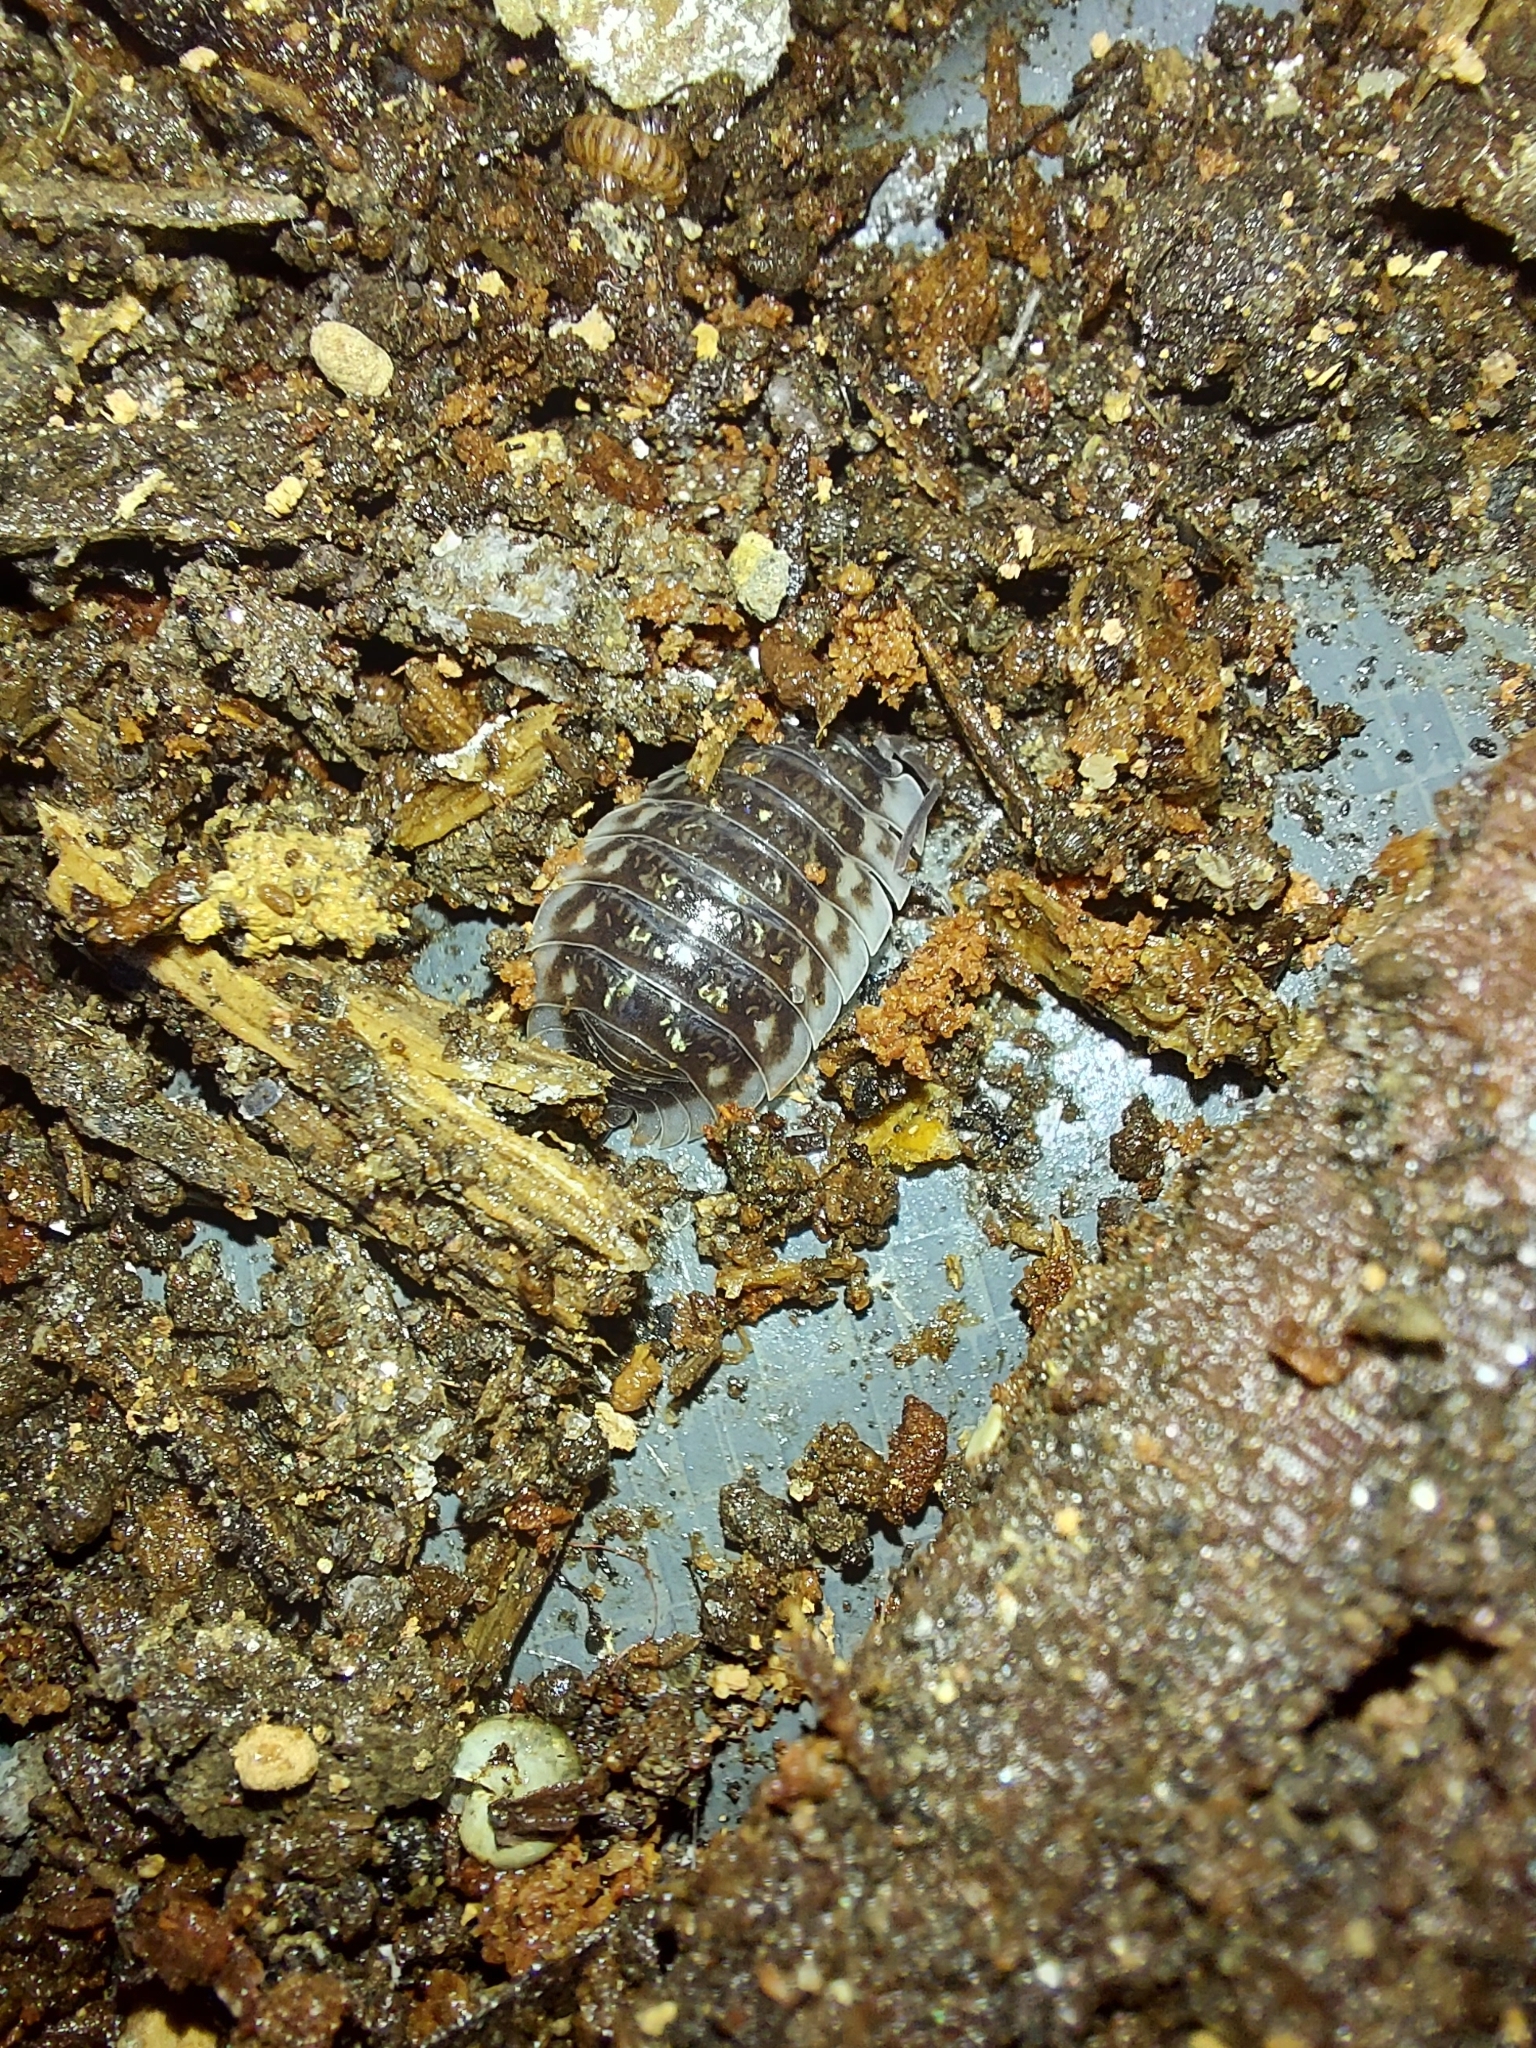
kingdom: Animalia
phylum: Arthropoda
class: Malacostraca
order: Isopoda
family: Oniscidae
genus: Oniscus
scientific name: Oniscus asellus
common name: Common shiny woodlouse
